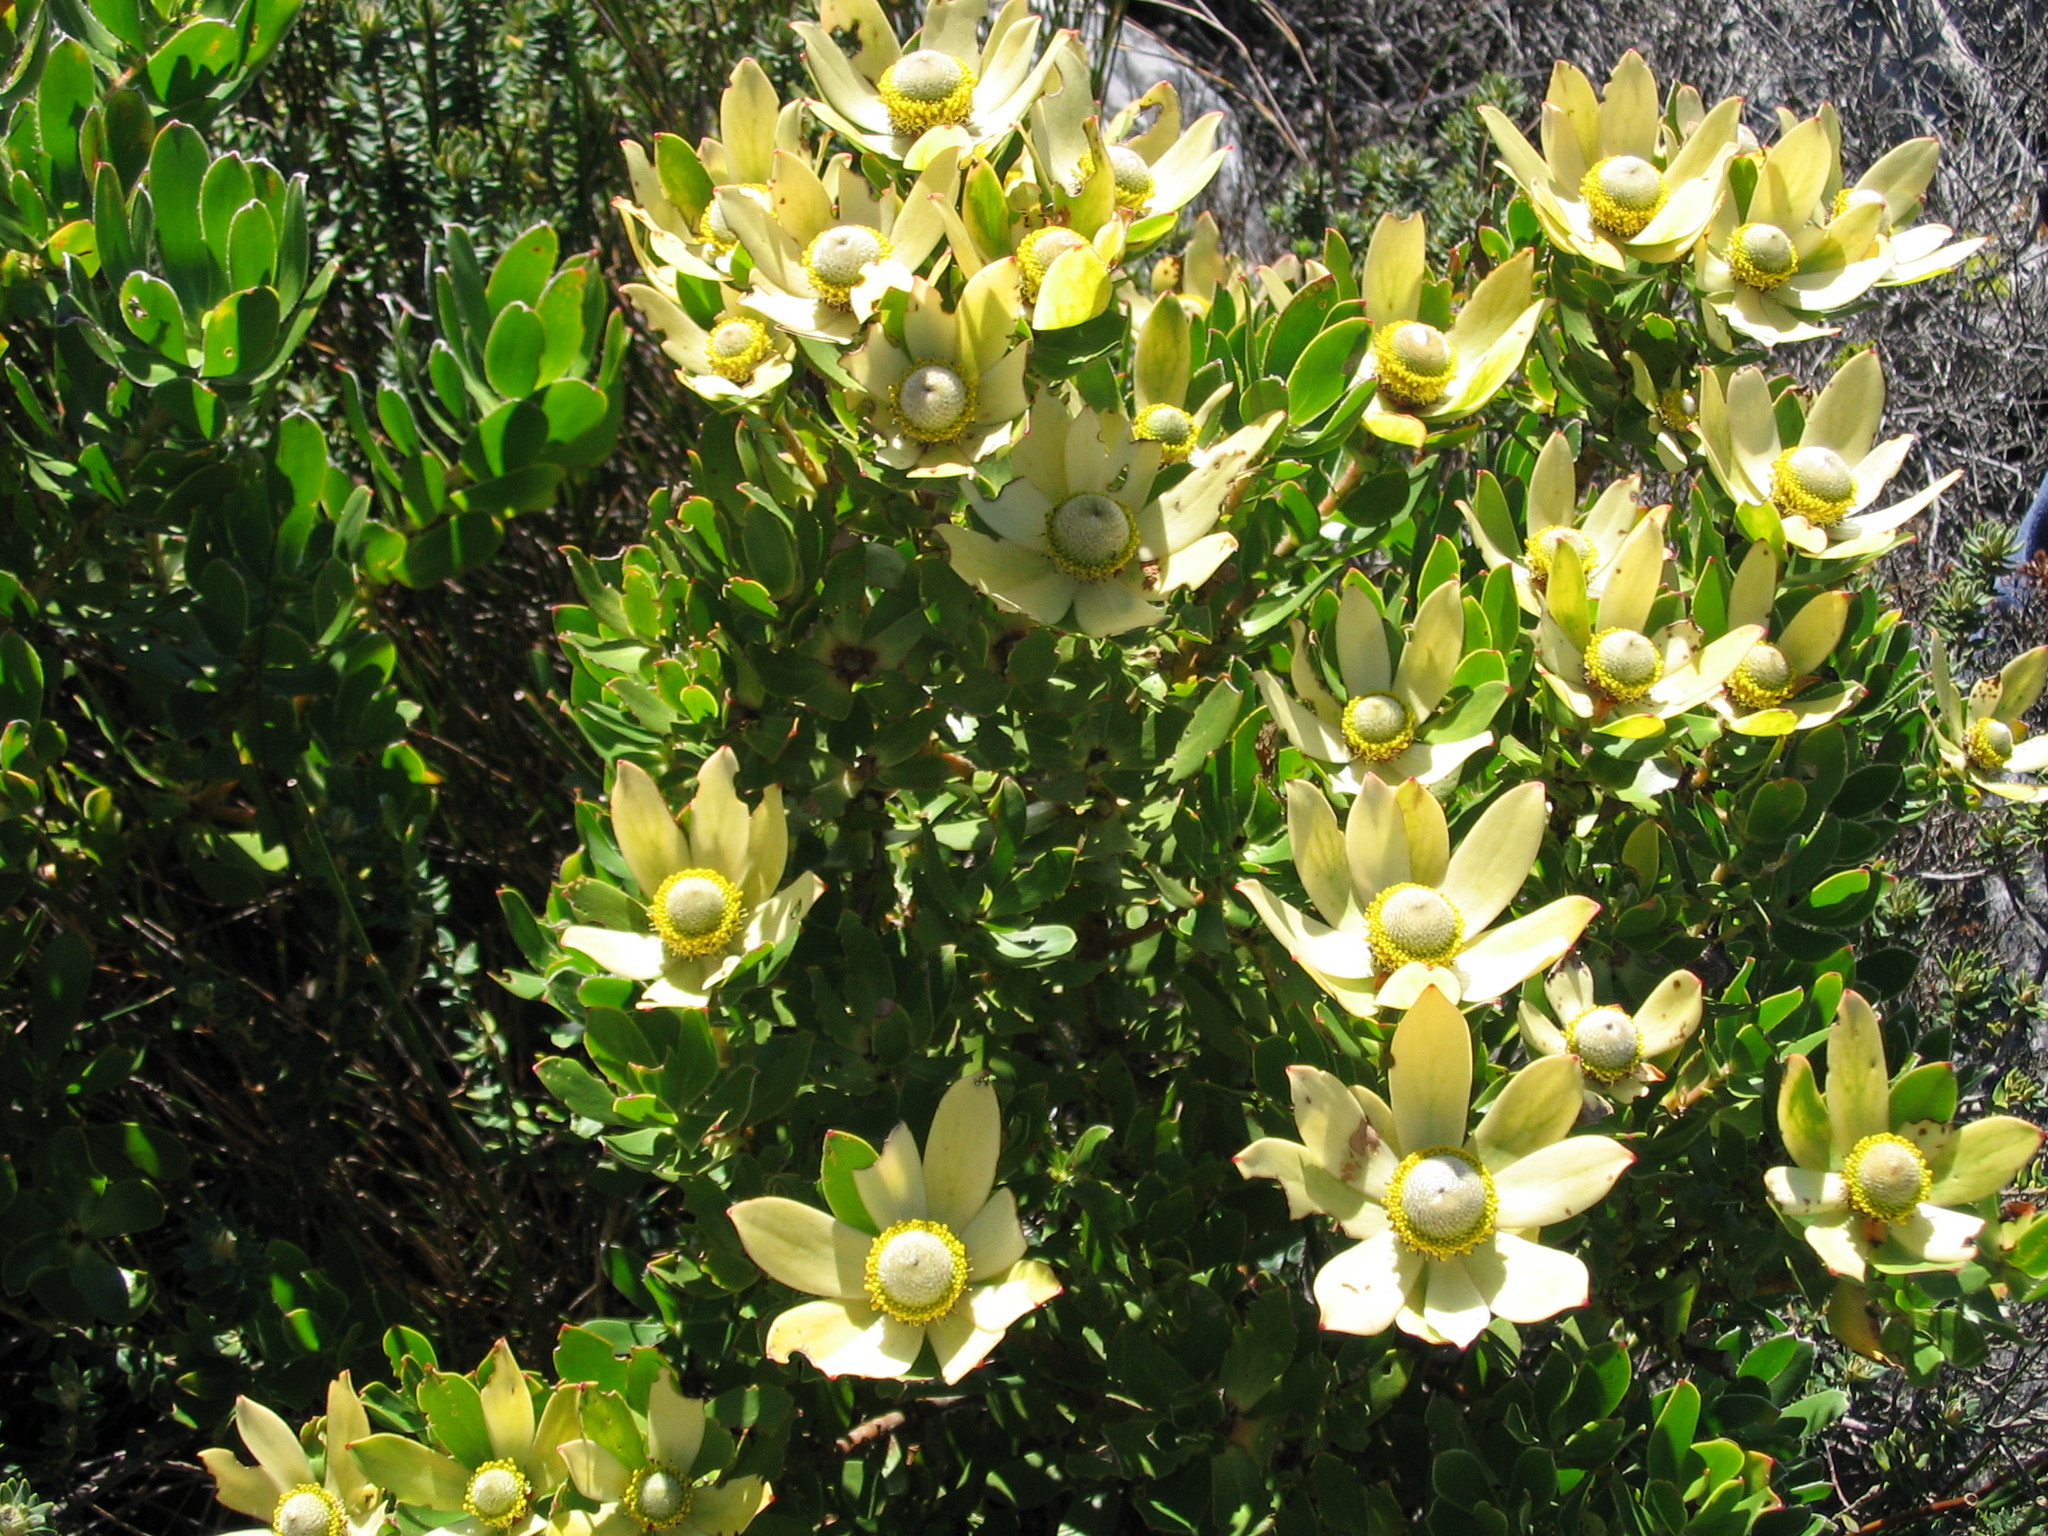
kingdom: Plantae
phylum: Tracheophyta
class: Magnoliopsida
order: Proteales
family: Proteaceae
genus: Leucadendron
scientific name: Leucadendron strobilinum
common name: Mountain rose
